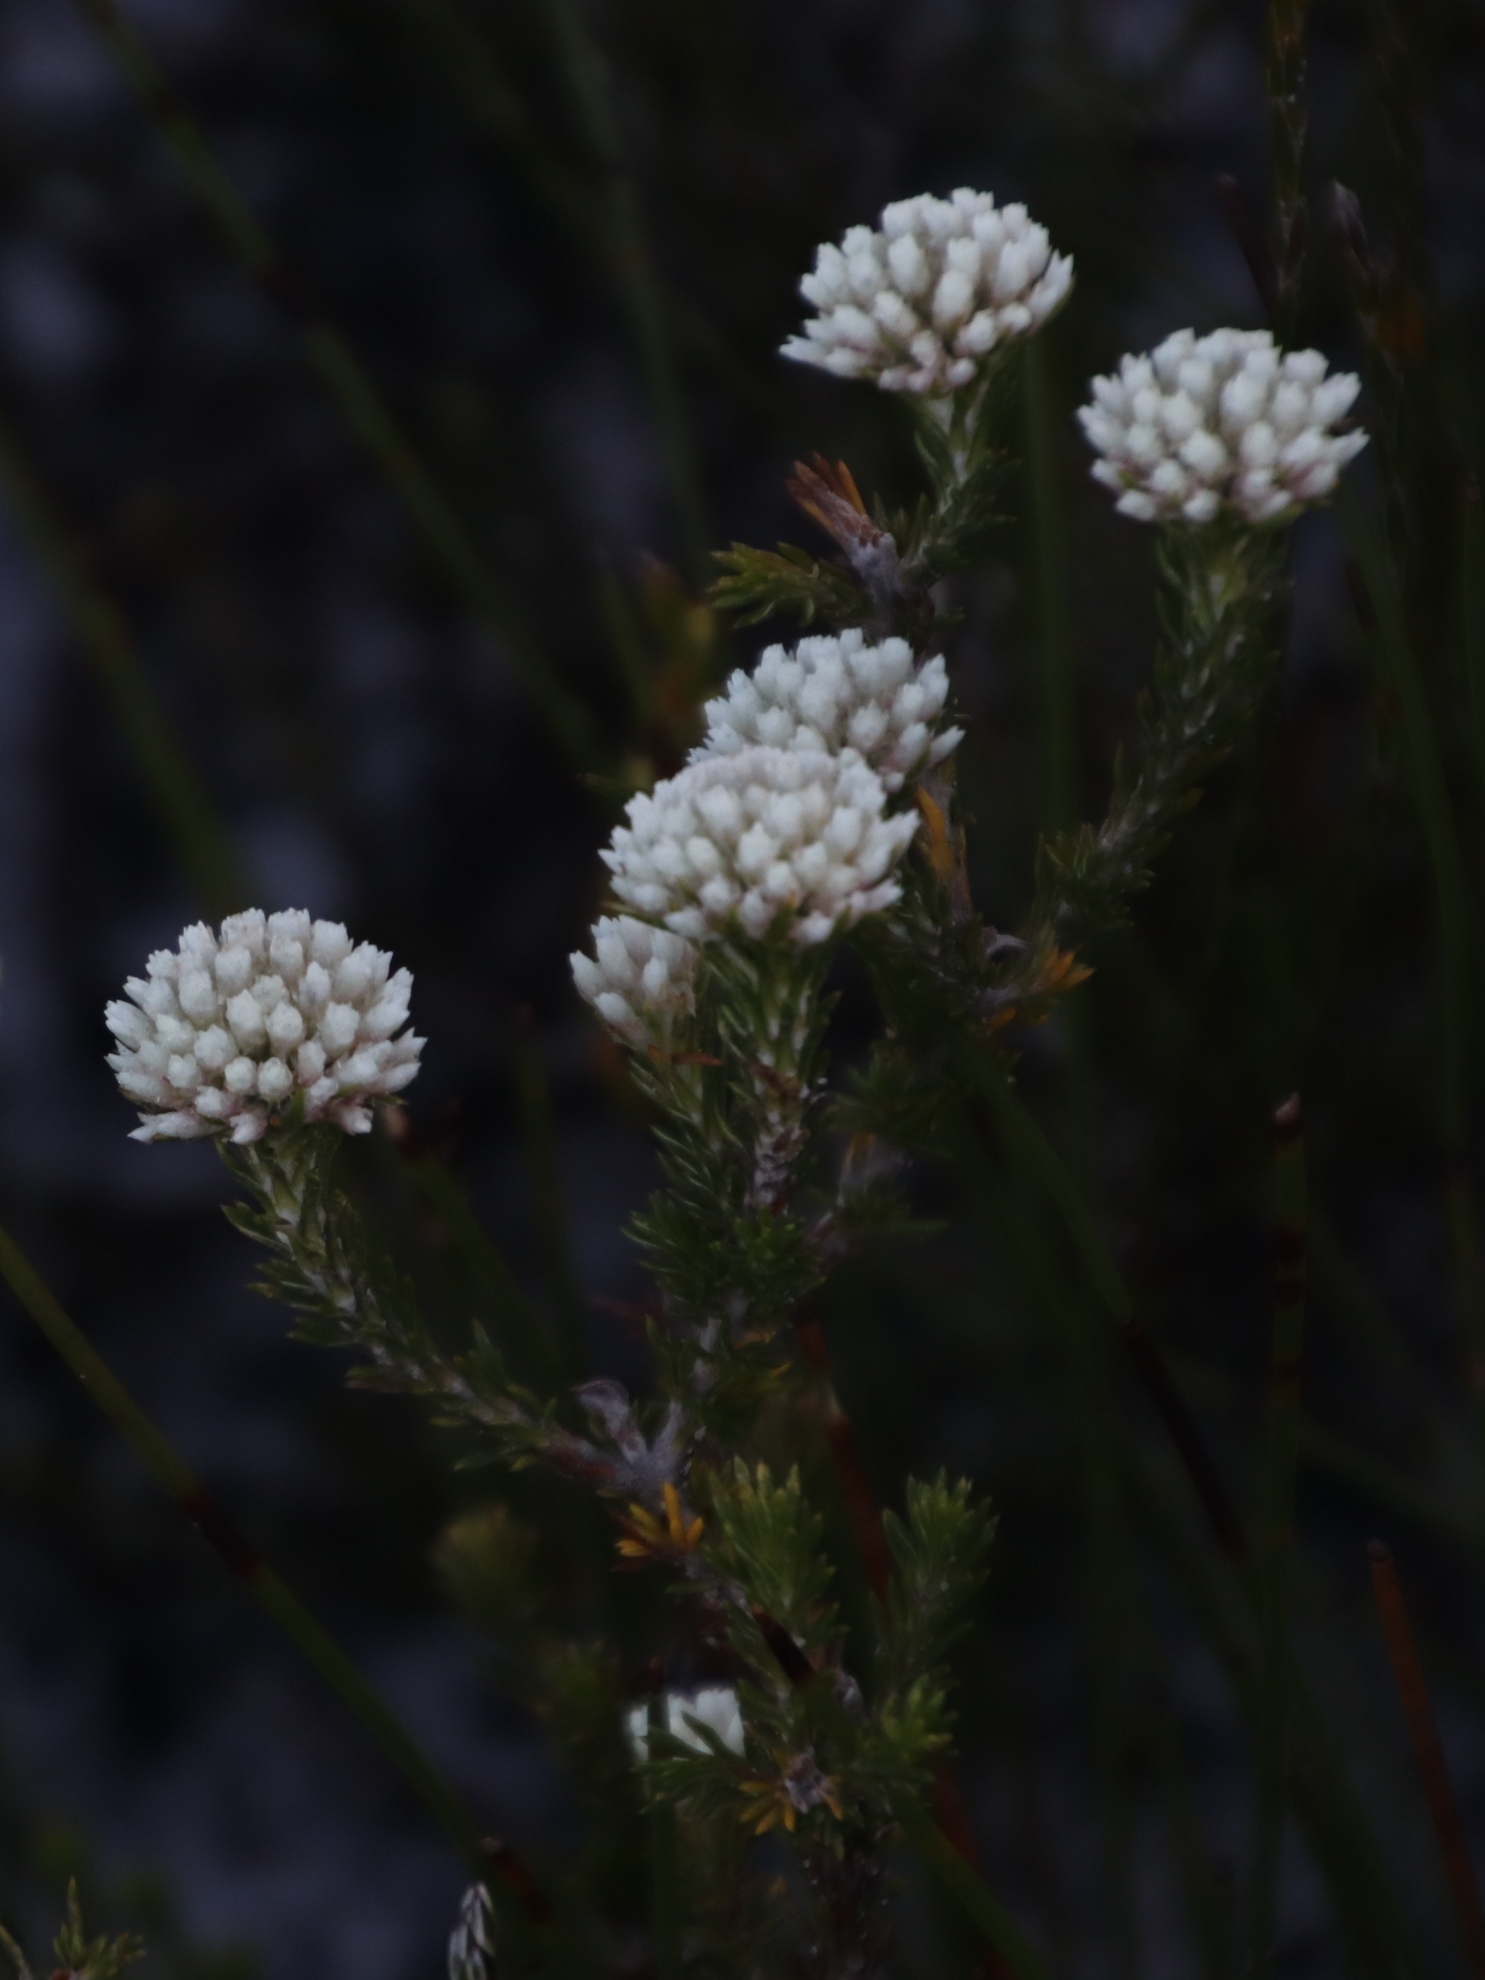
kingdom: Plantae
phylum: Tracheophyta
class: Magnoliopsida
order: Asterales
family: Asteraceae
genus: Metalasia
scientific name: Metalasia compacta
